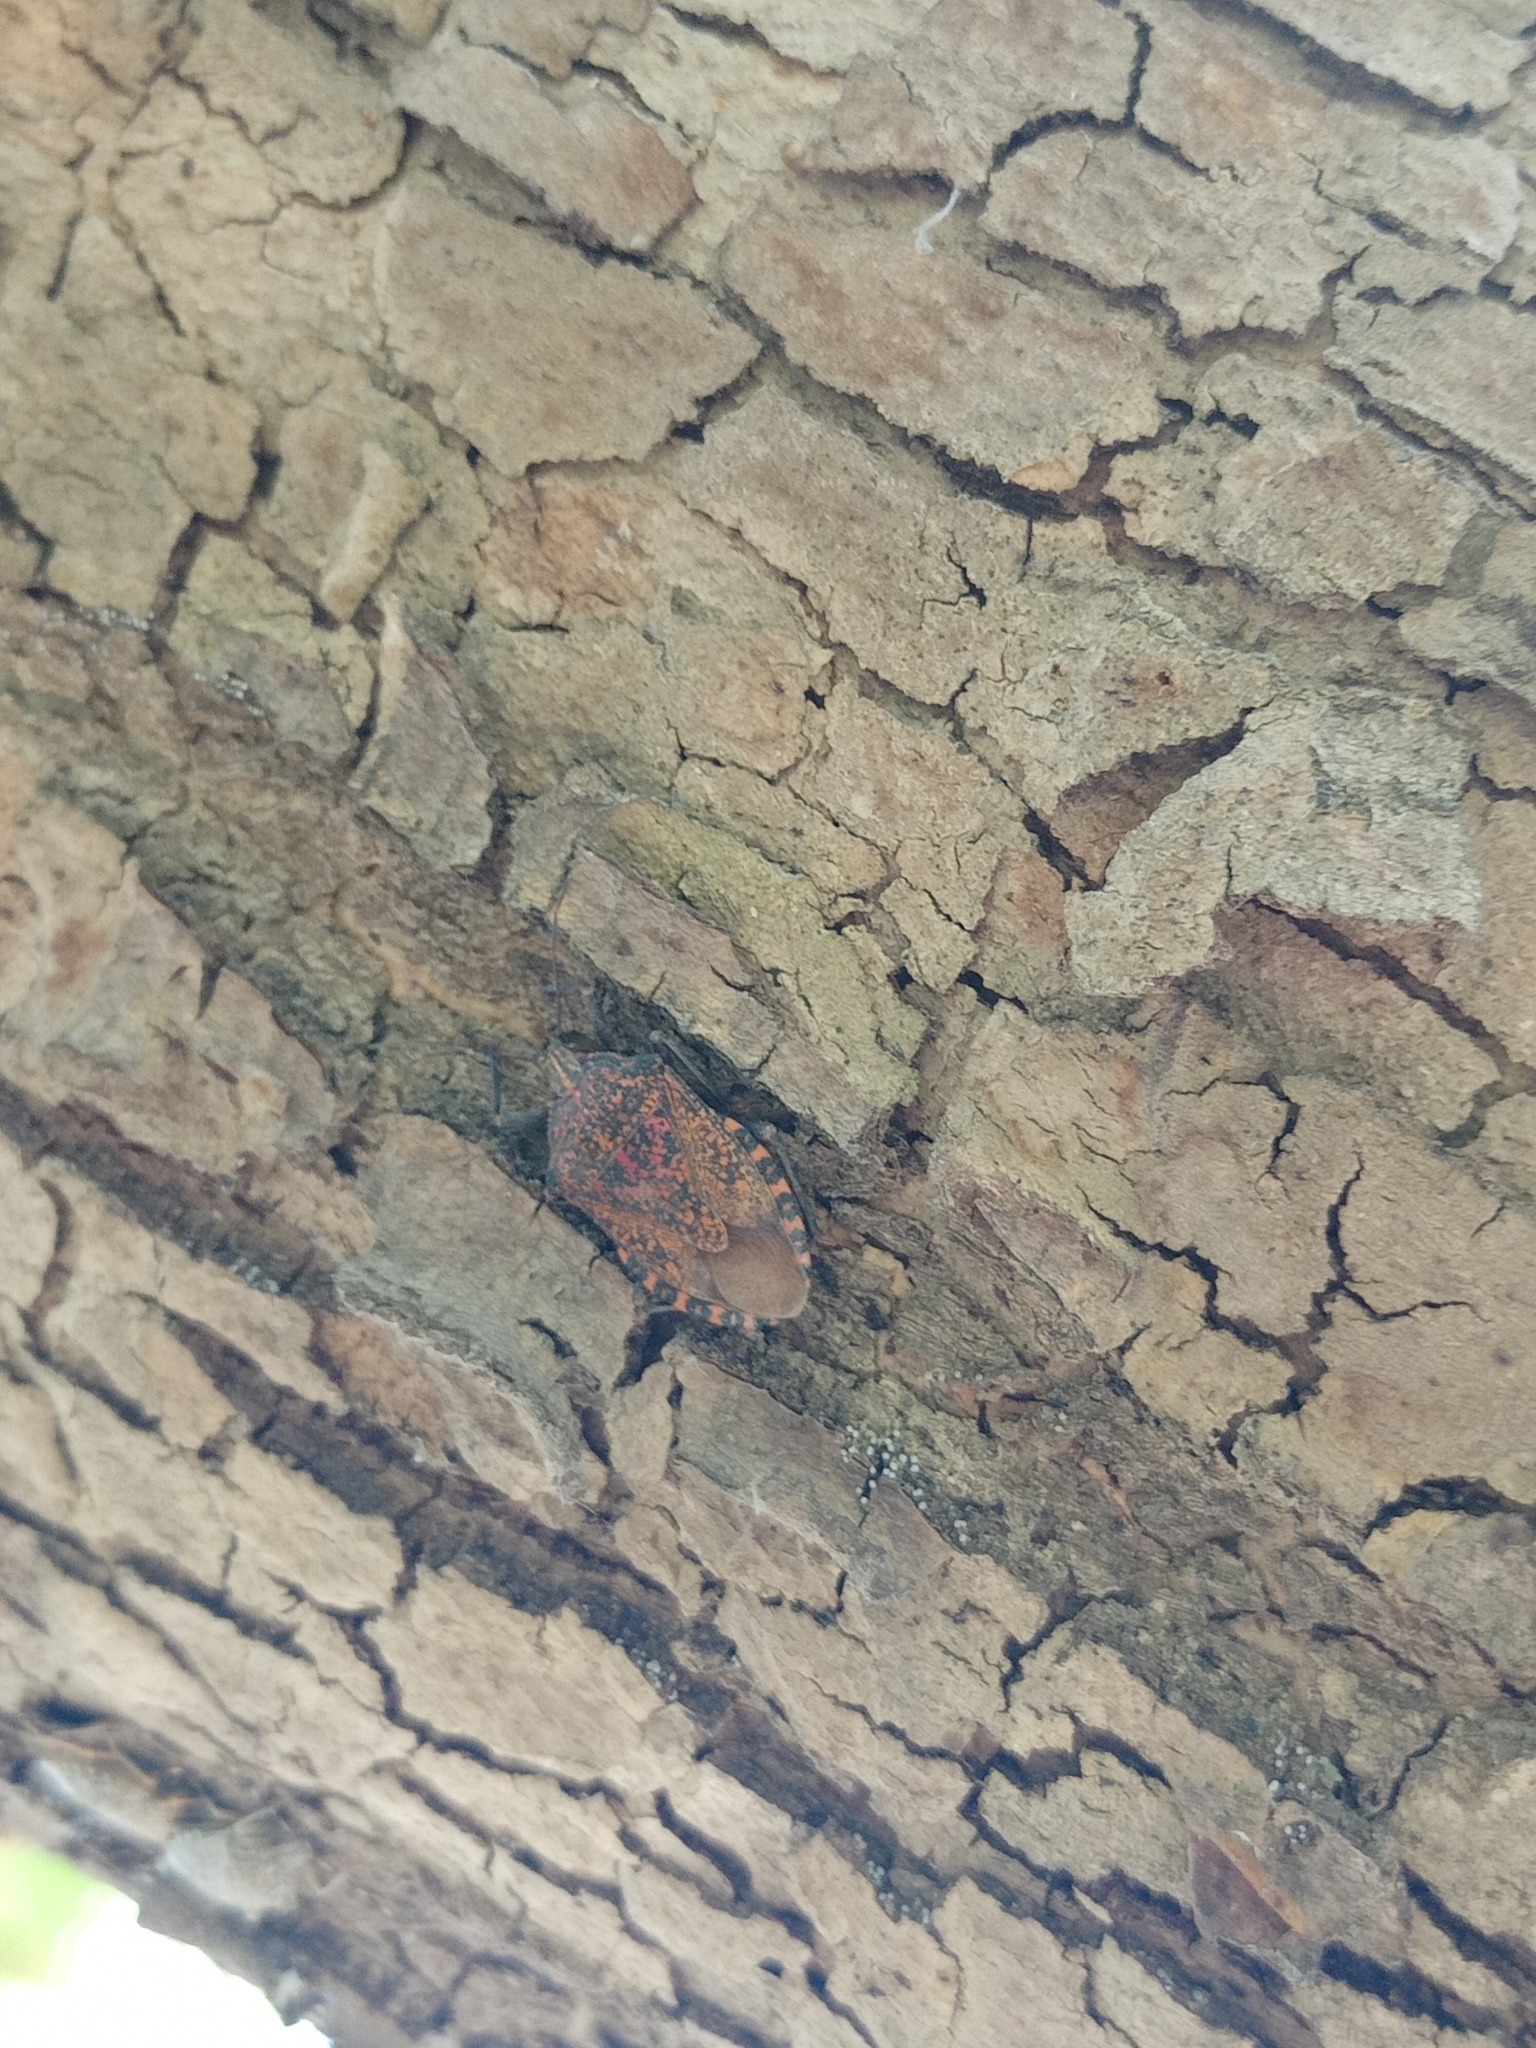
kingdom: Animalia
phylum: Arthropoda
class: Insecta
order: Hemiptera
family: Pentatomidae
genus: Apodiphus
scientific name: Apodiphus
